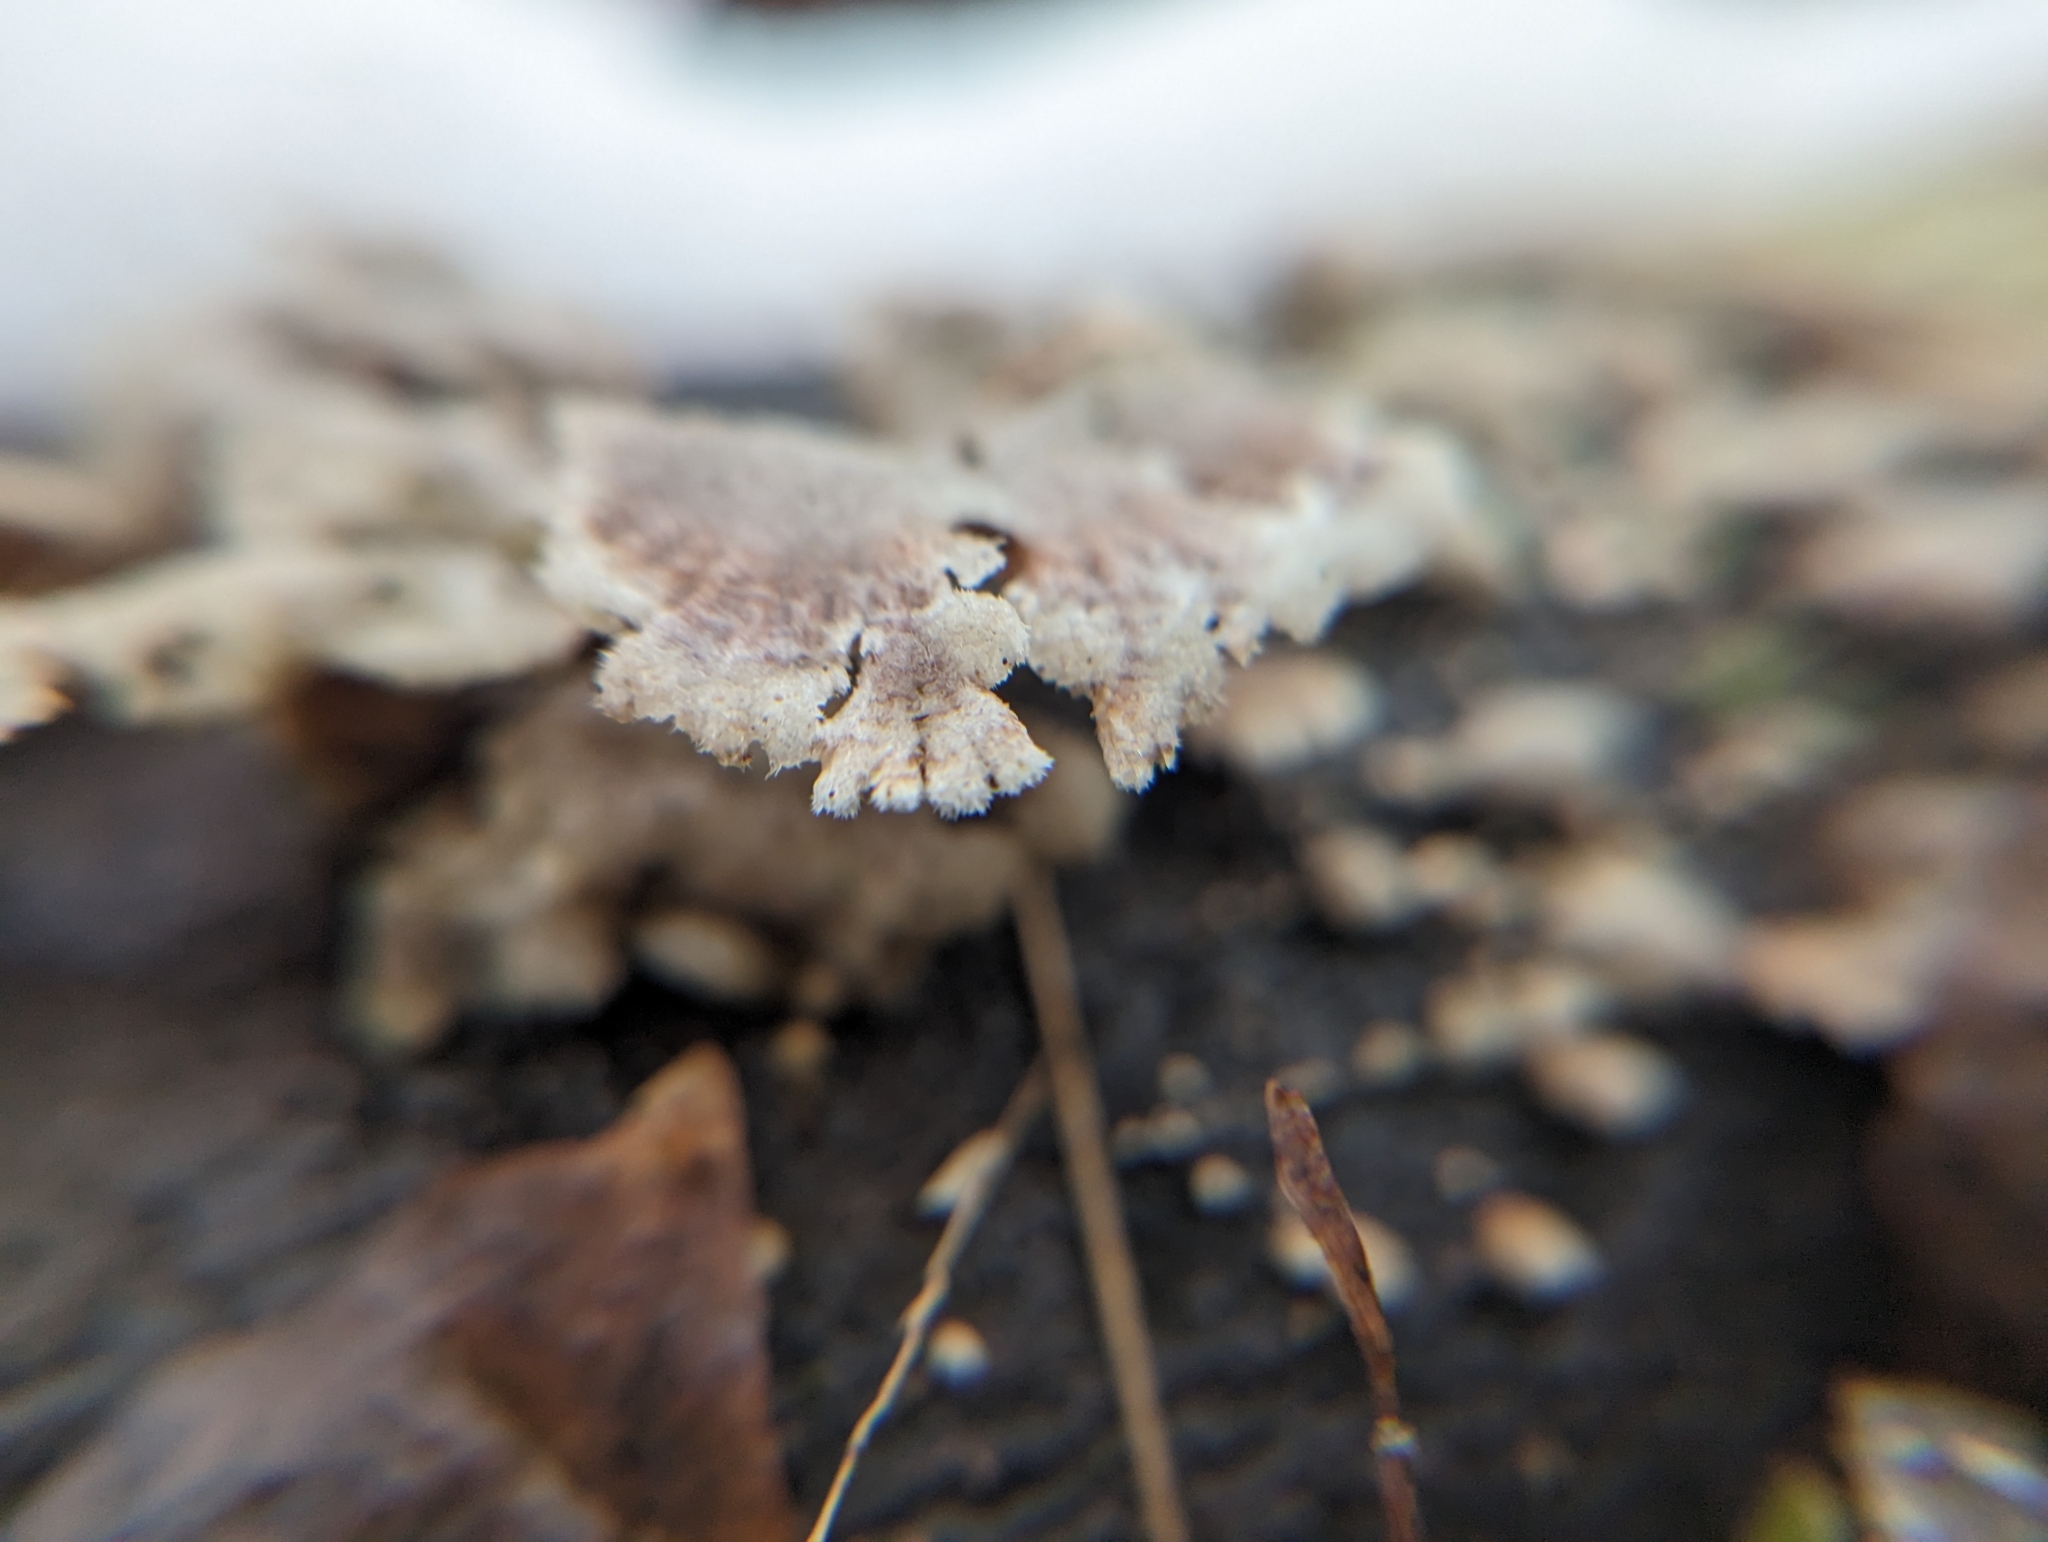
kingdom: Fungi
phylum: Basidiomycota
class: Agaricomycetes
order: Agaricales
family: Schizophyllaceae
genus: Schizophyllum
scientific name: Schizophyllum commune
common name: Common porecrust
